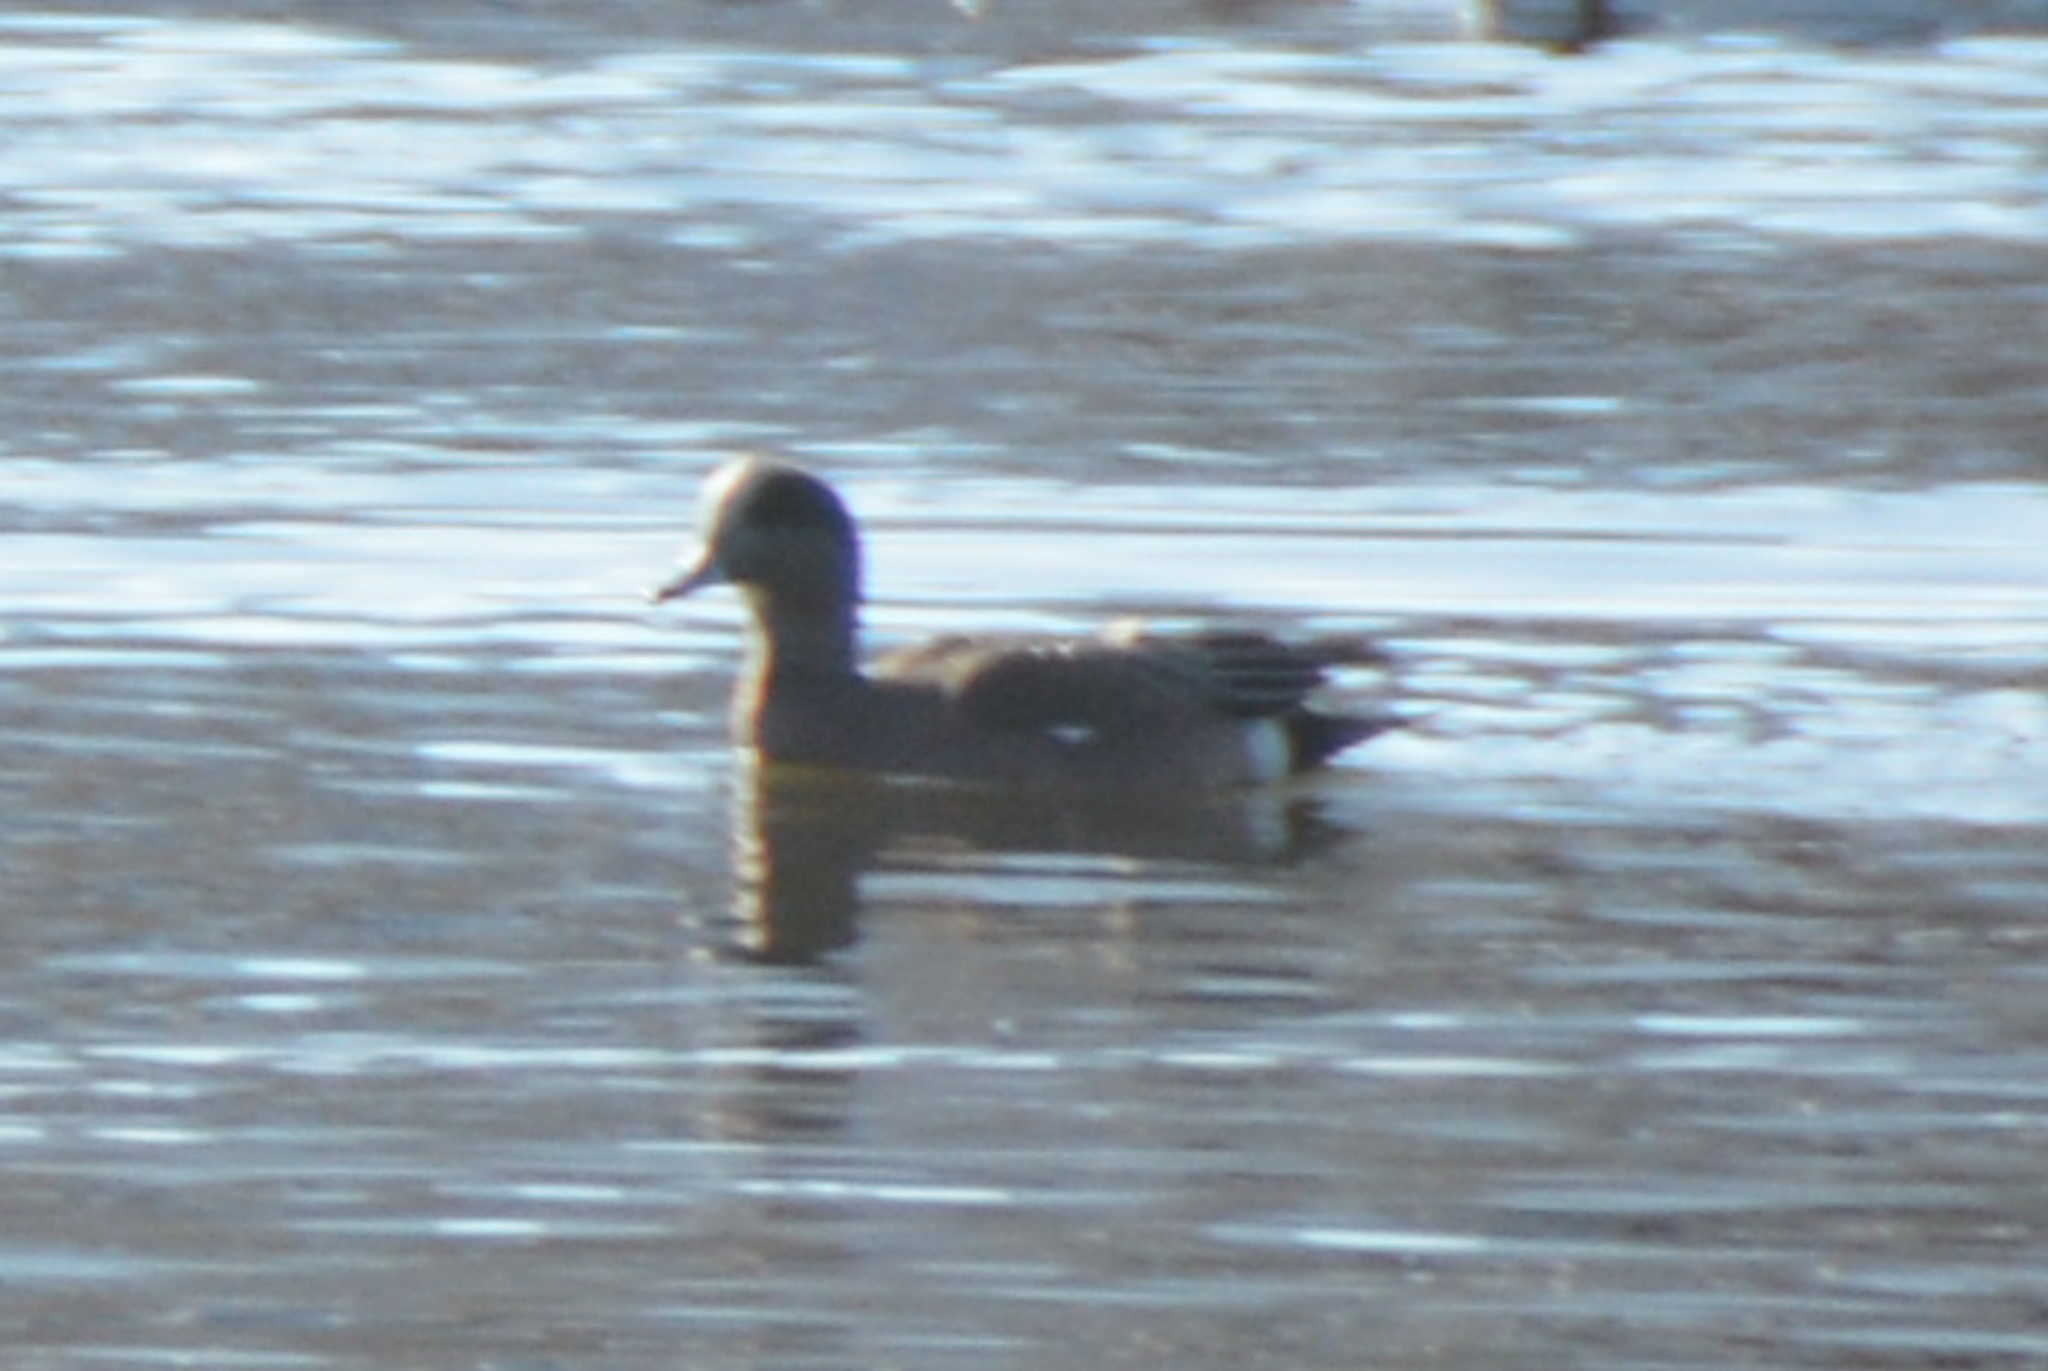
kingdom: Animalia
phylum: Chordata
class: Aves
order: Anseriformes
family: Anatidae
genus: Mareca
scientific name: Mareca americana
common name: American wigeon
